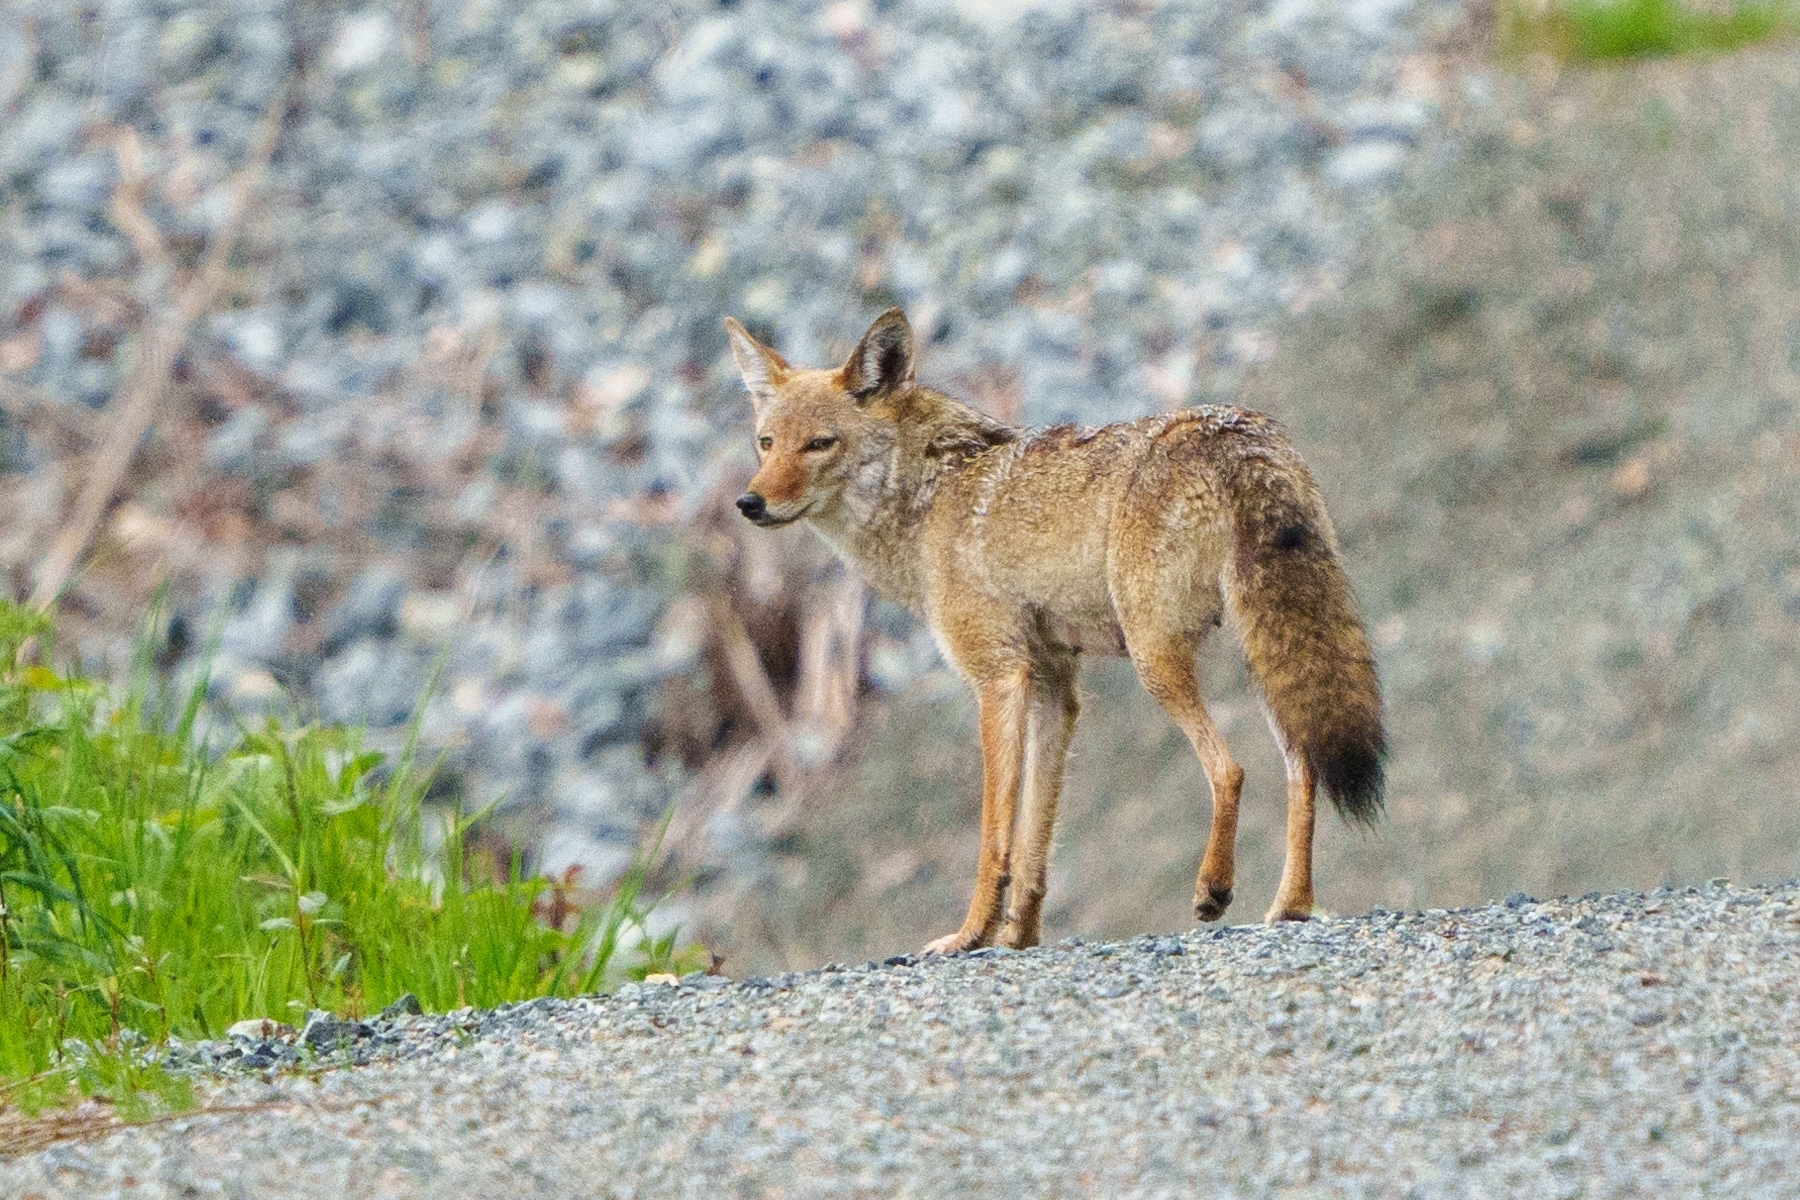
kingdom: Animalia
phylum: Chordata
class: Mammalia
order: Carnivora
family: Canidae
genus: Canis
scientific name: Canis latrans
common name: Coyote
